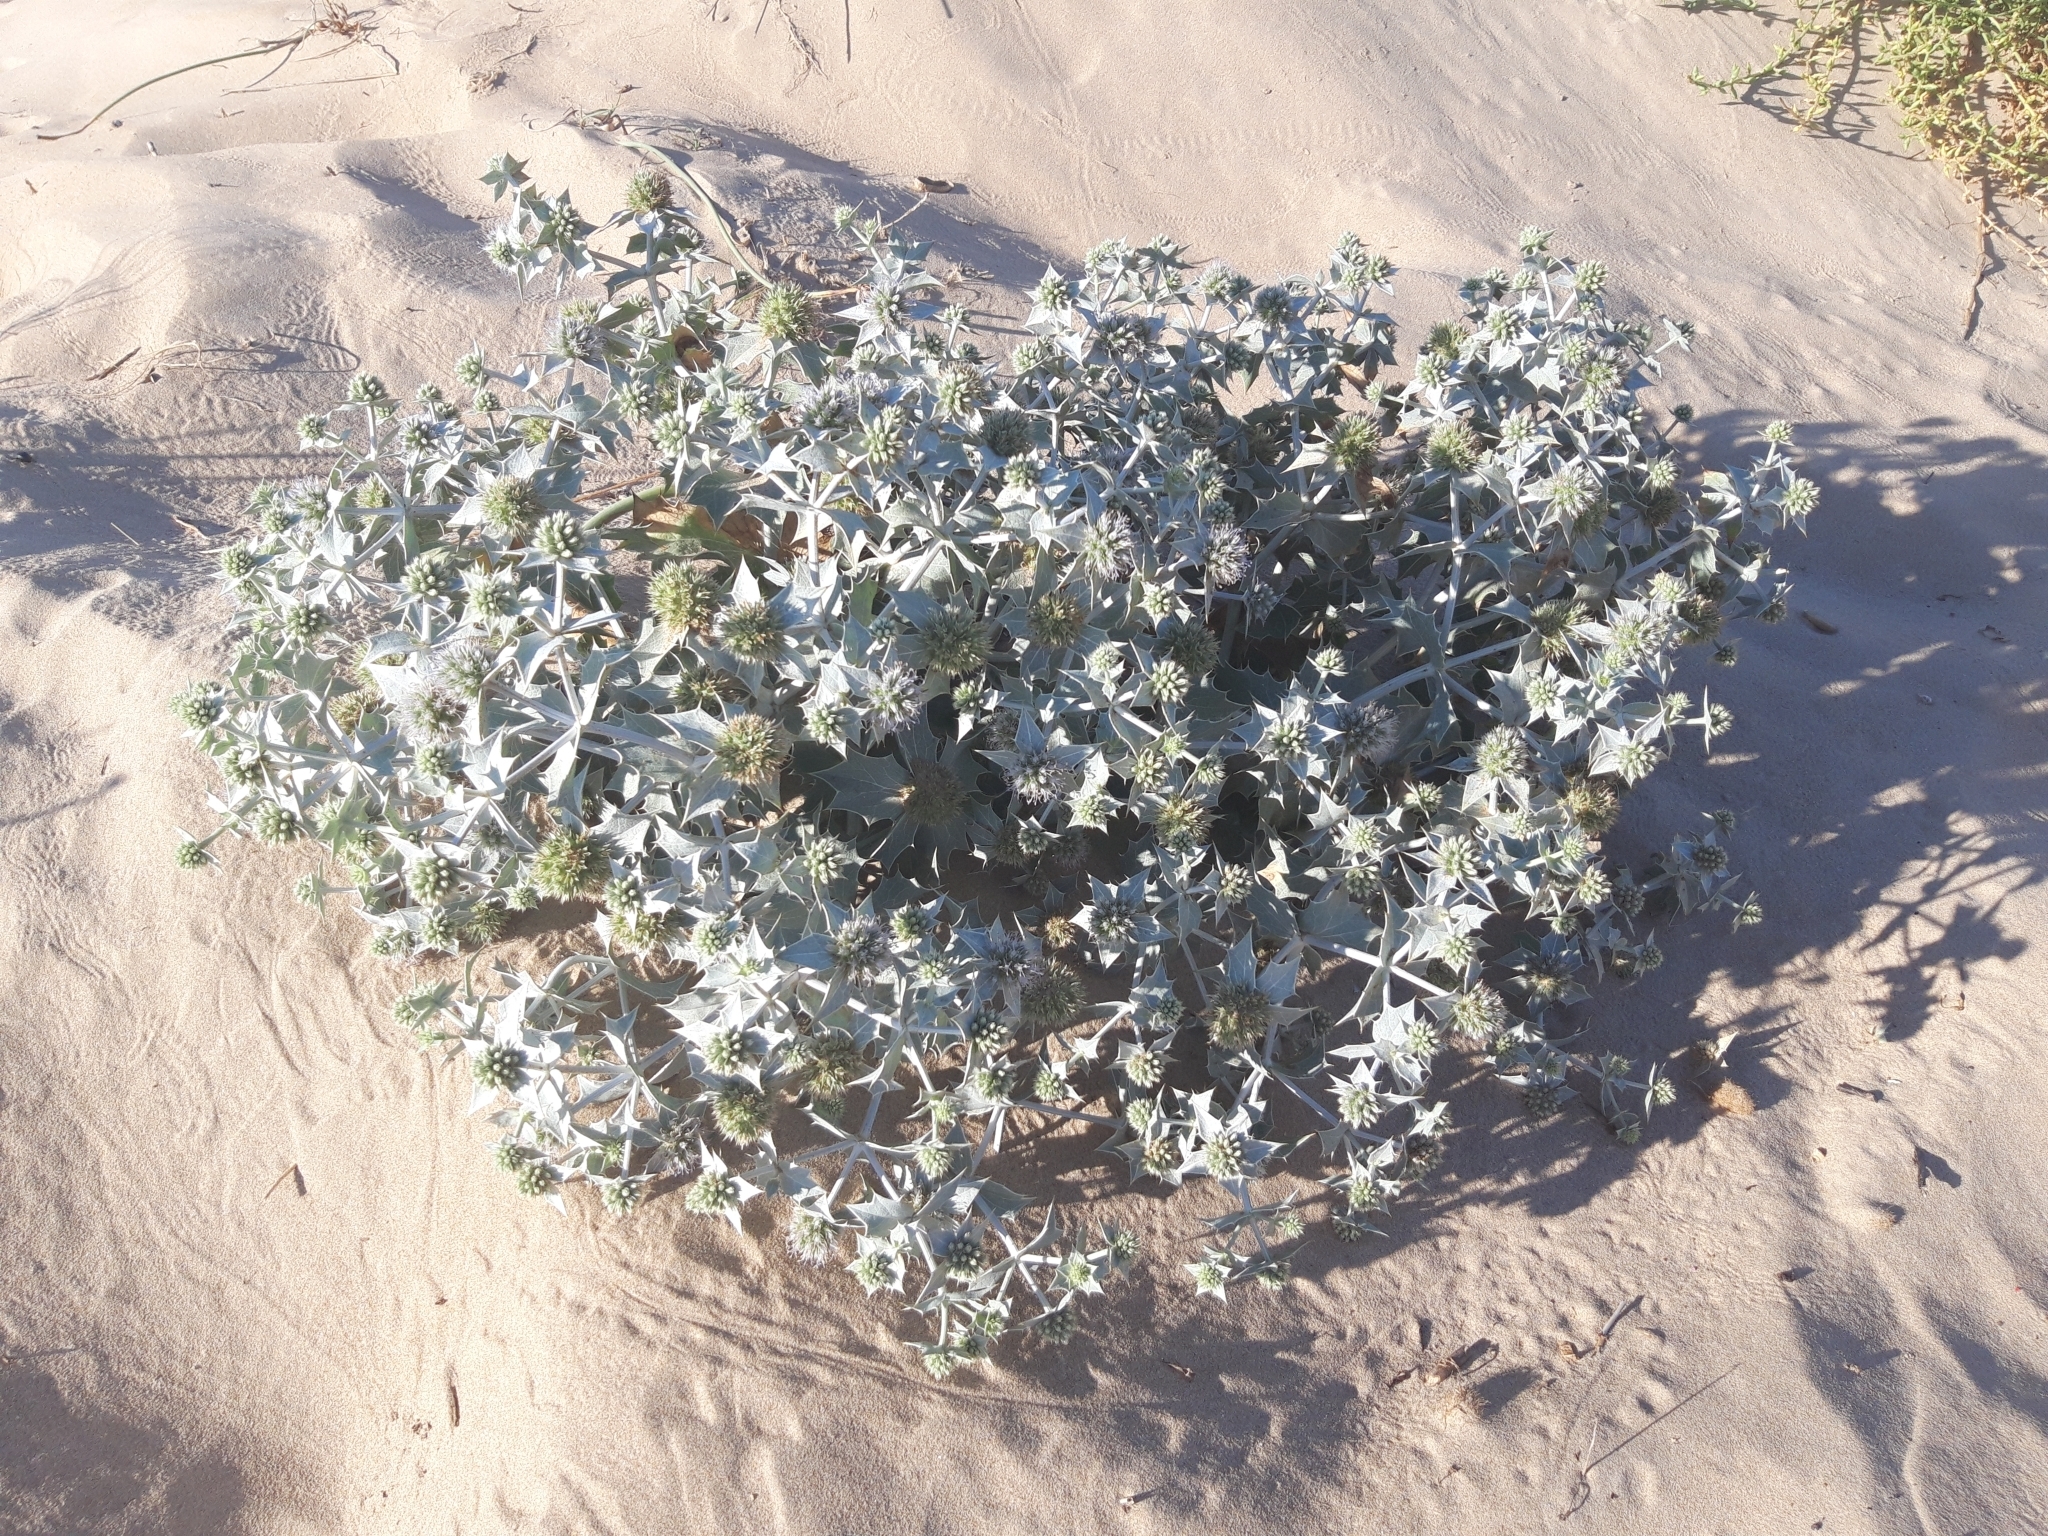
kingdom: Plantae
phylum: Tracheophyta
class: Magnoliopsida
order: Apiales
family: Apiaceae
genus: Eryngium
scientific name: Eryngium maritimum
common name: Sea-holly
